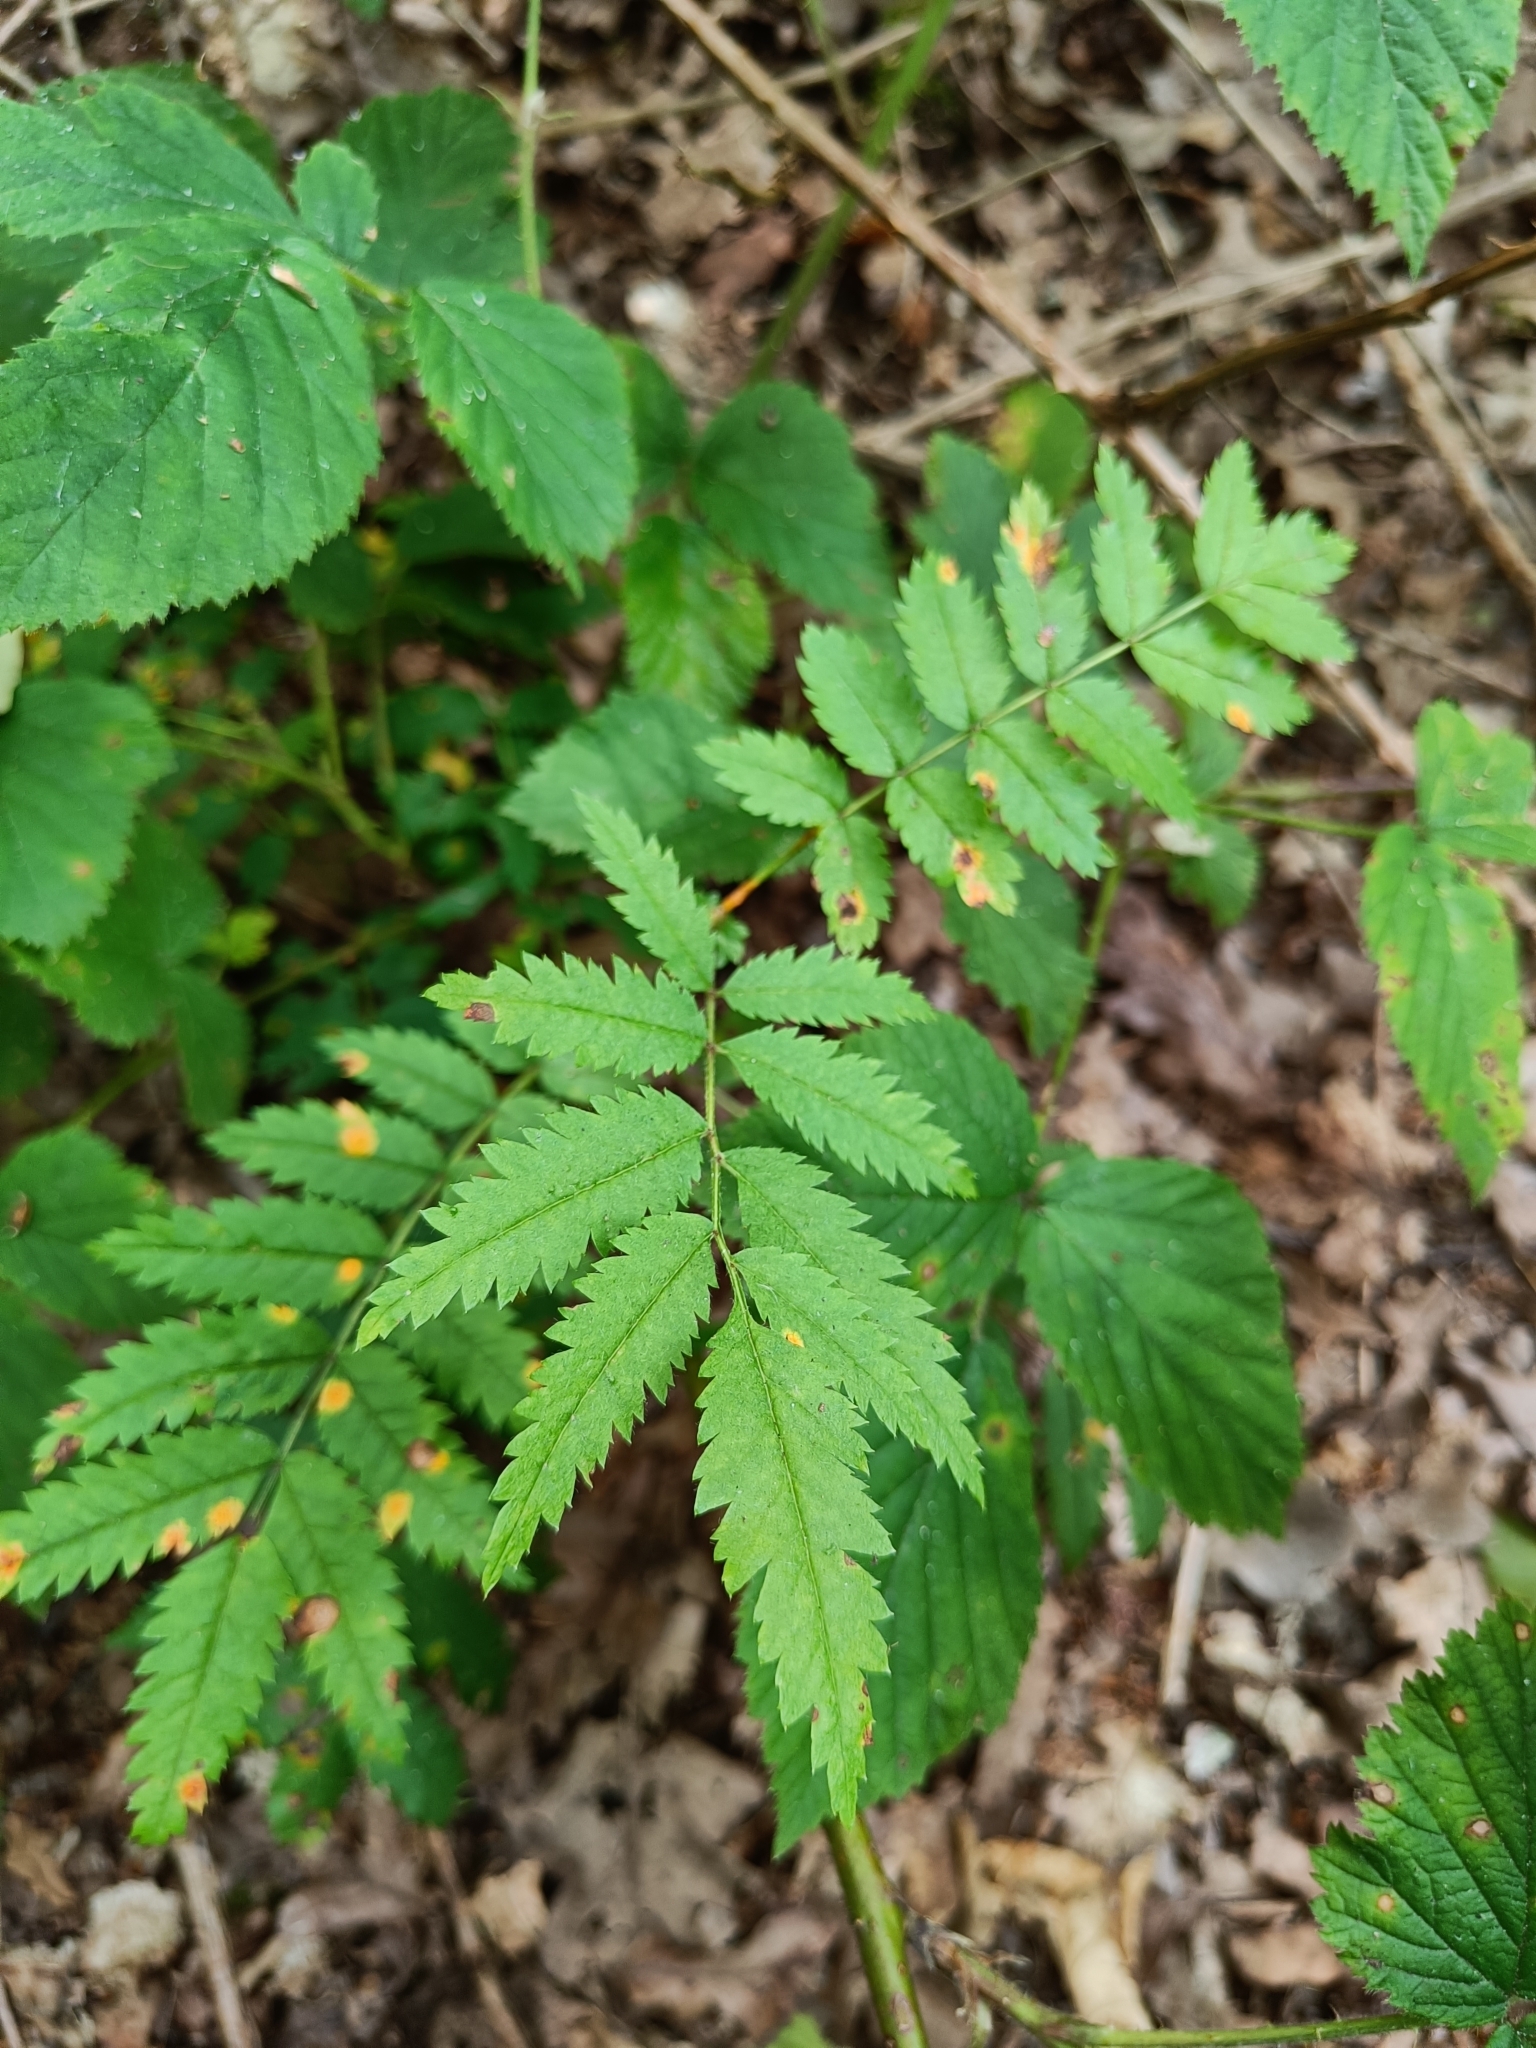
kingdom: Plantae
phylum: Tracheophyta
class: Magnoliopsida
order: Rosales
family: Rosaceae
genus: Sorbus
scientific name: Sorbus aucuparia
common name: Rowan
